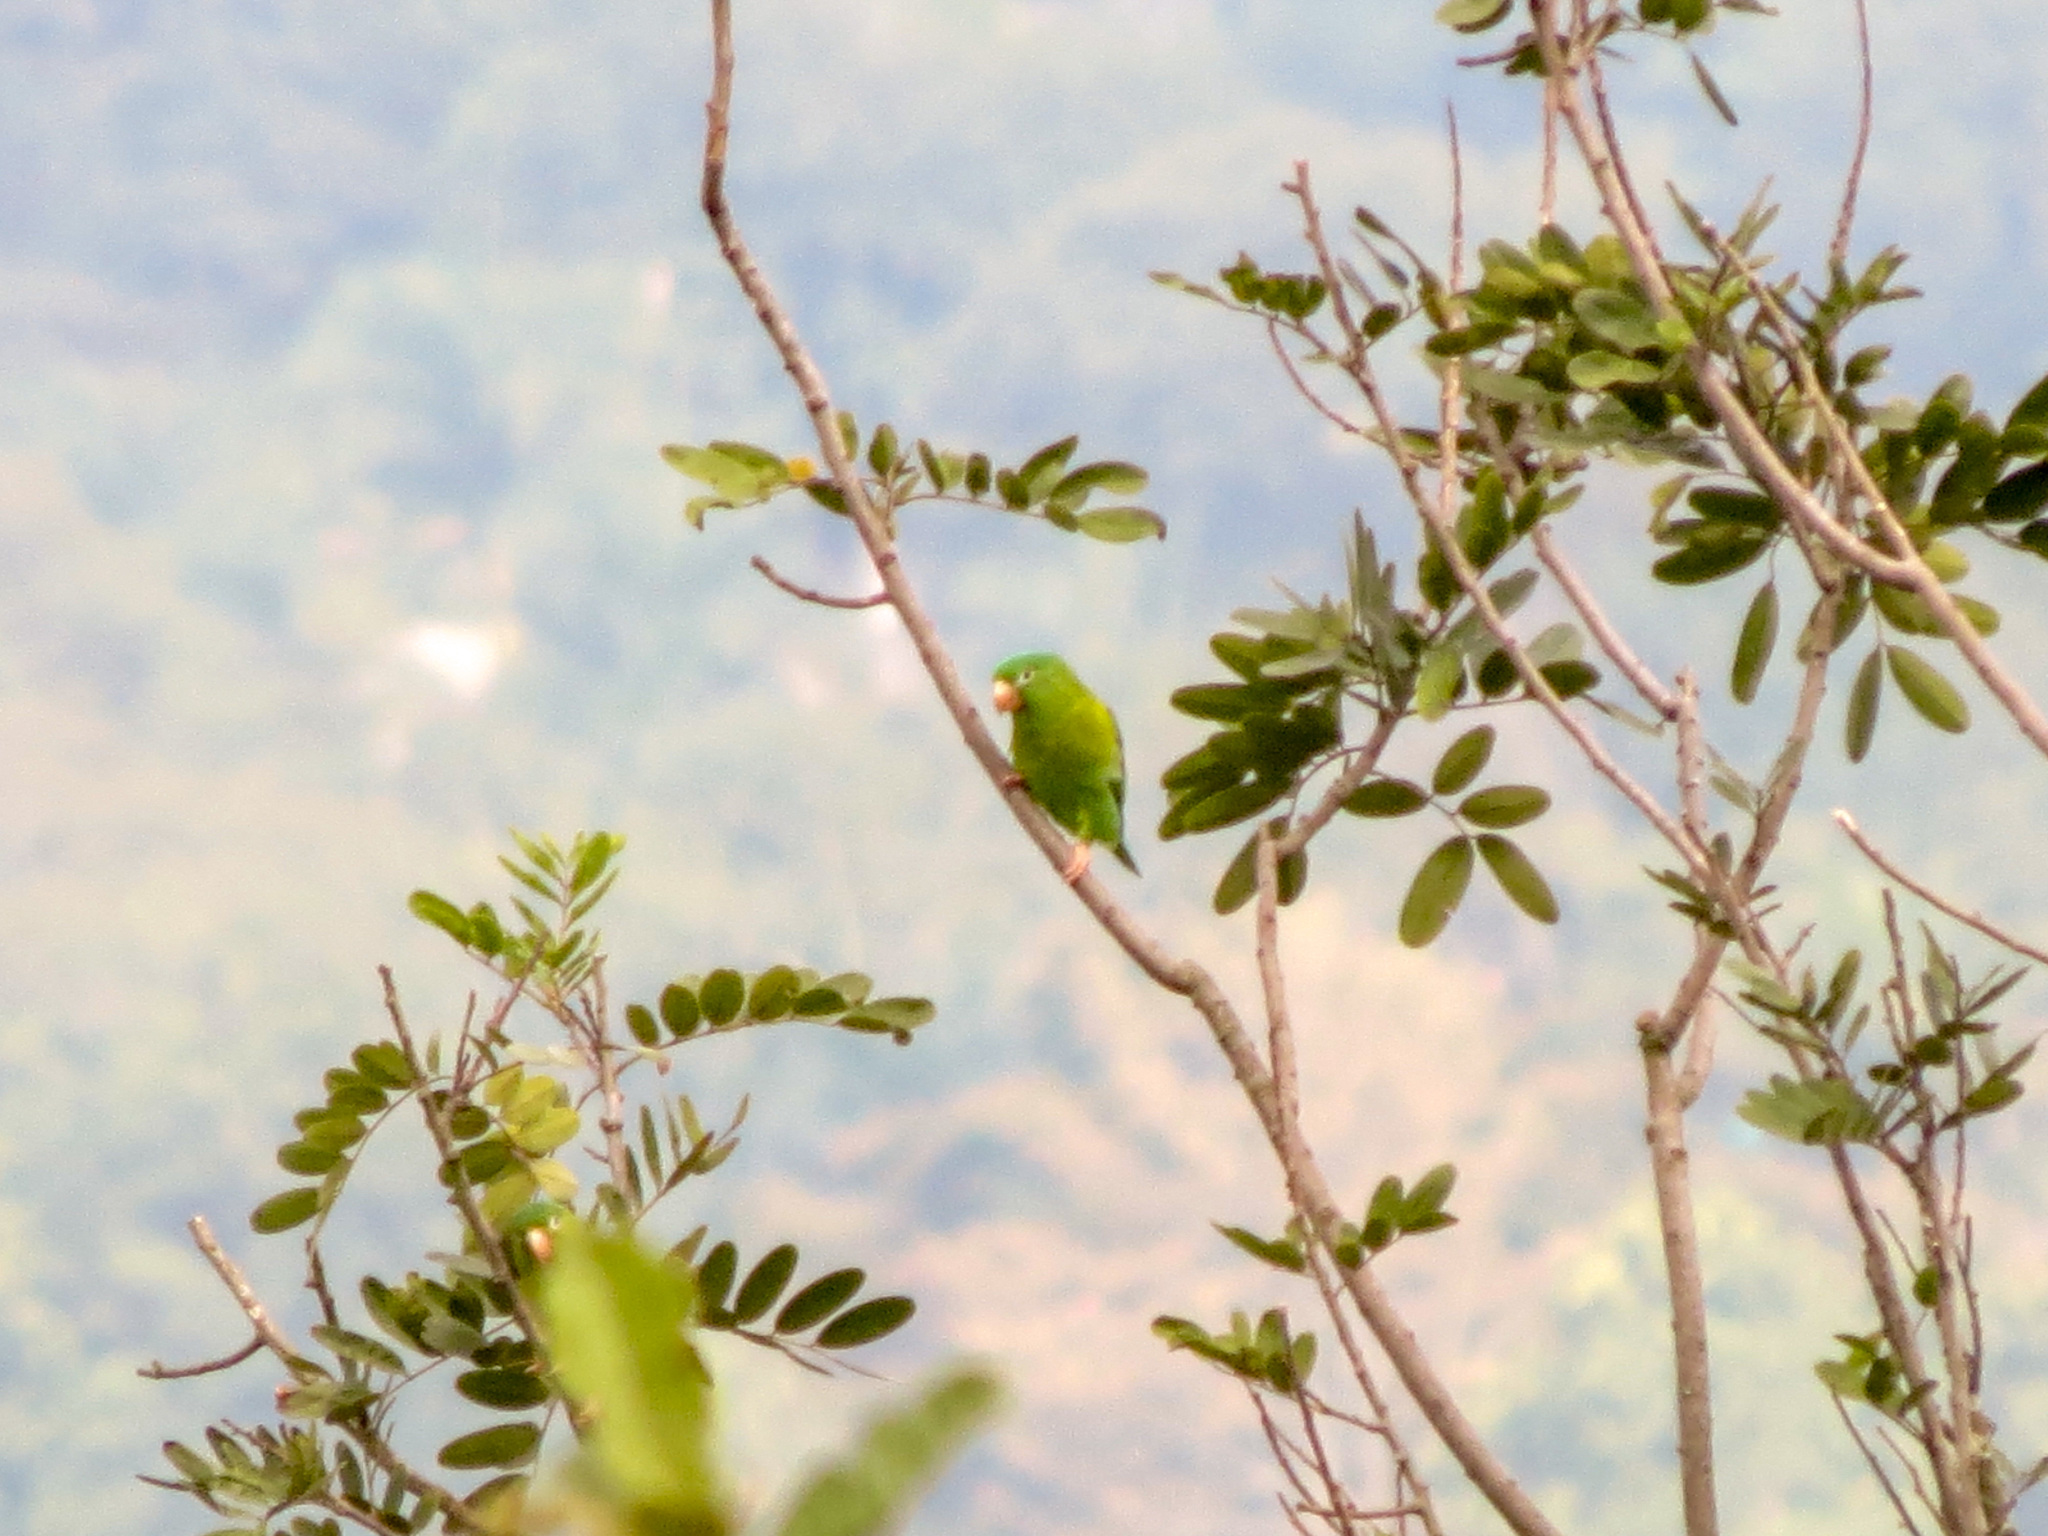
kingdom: Animalia
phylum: Chordata
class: Aves
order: Psittaciformes
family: Psittacidae
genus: Brotogeris
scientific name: Brotogeris jugularis
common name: Orange-chinned parakeet
